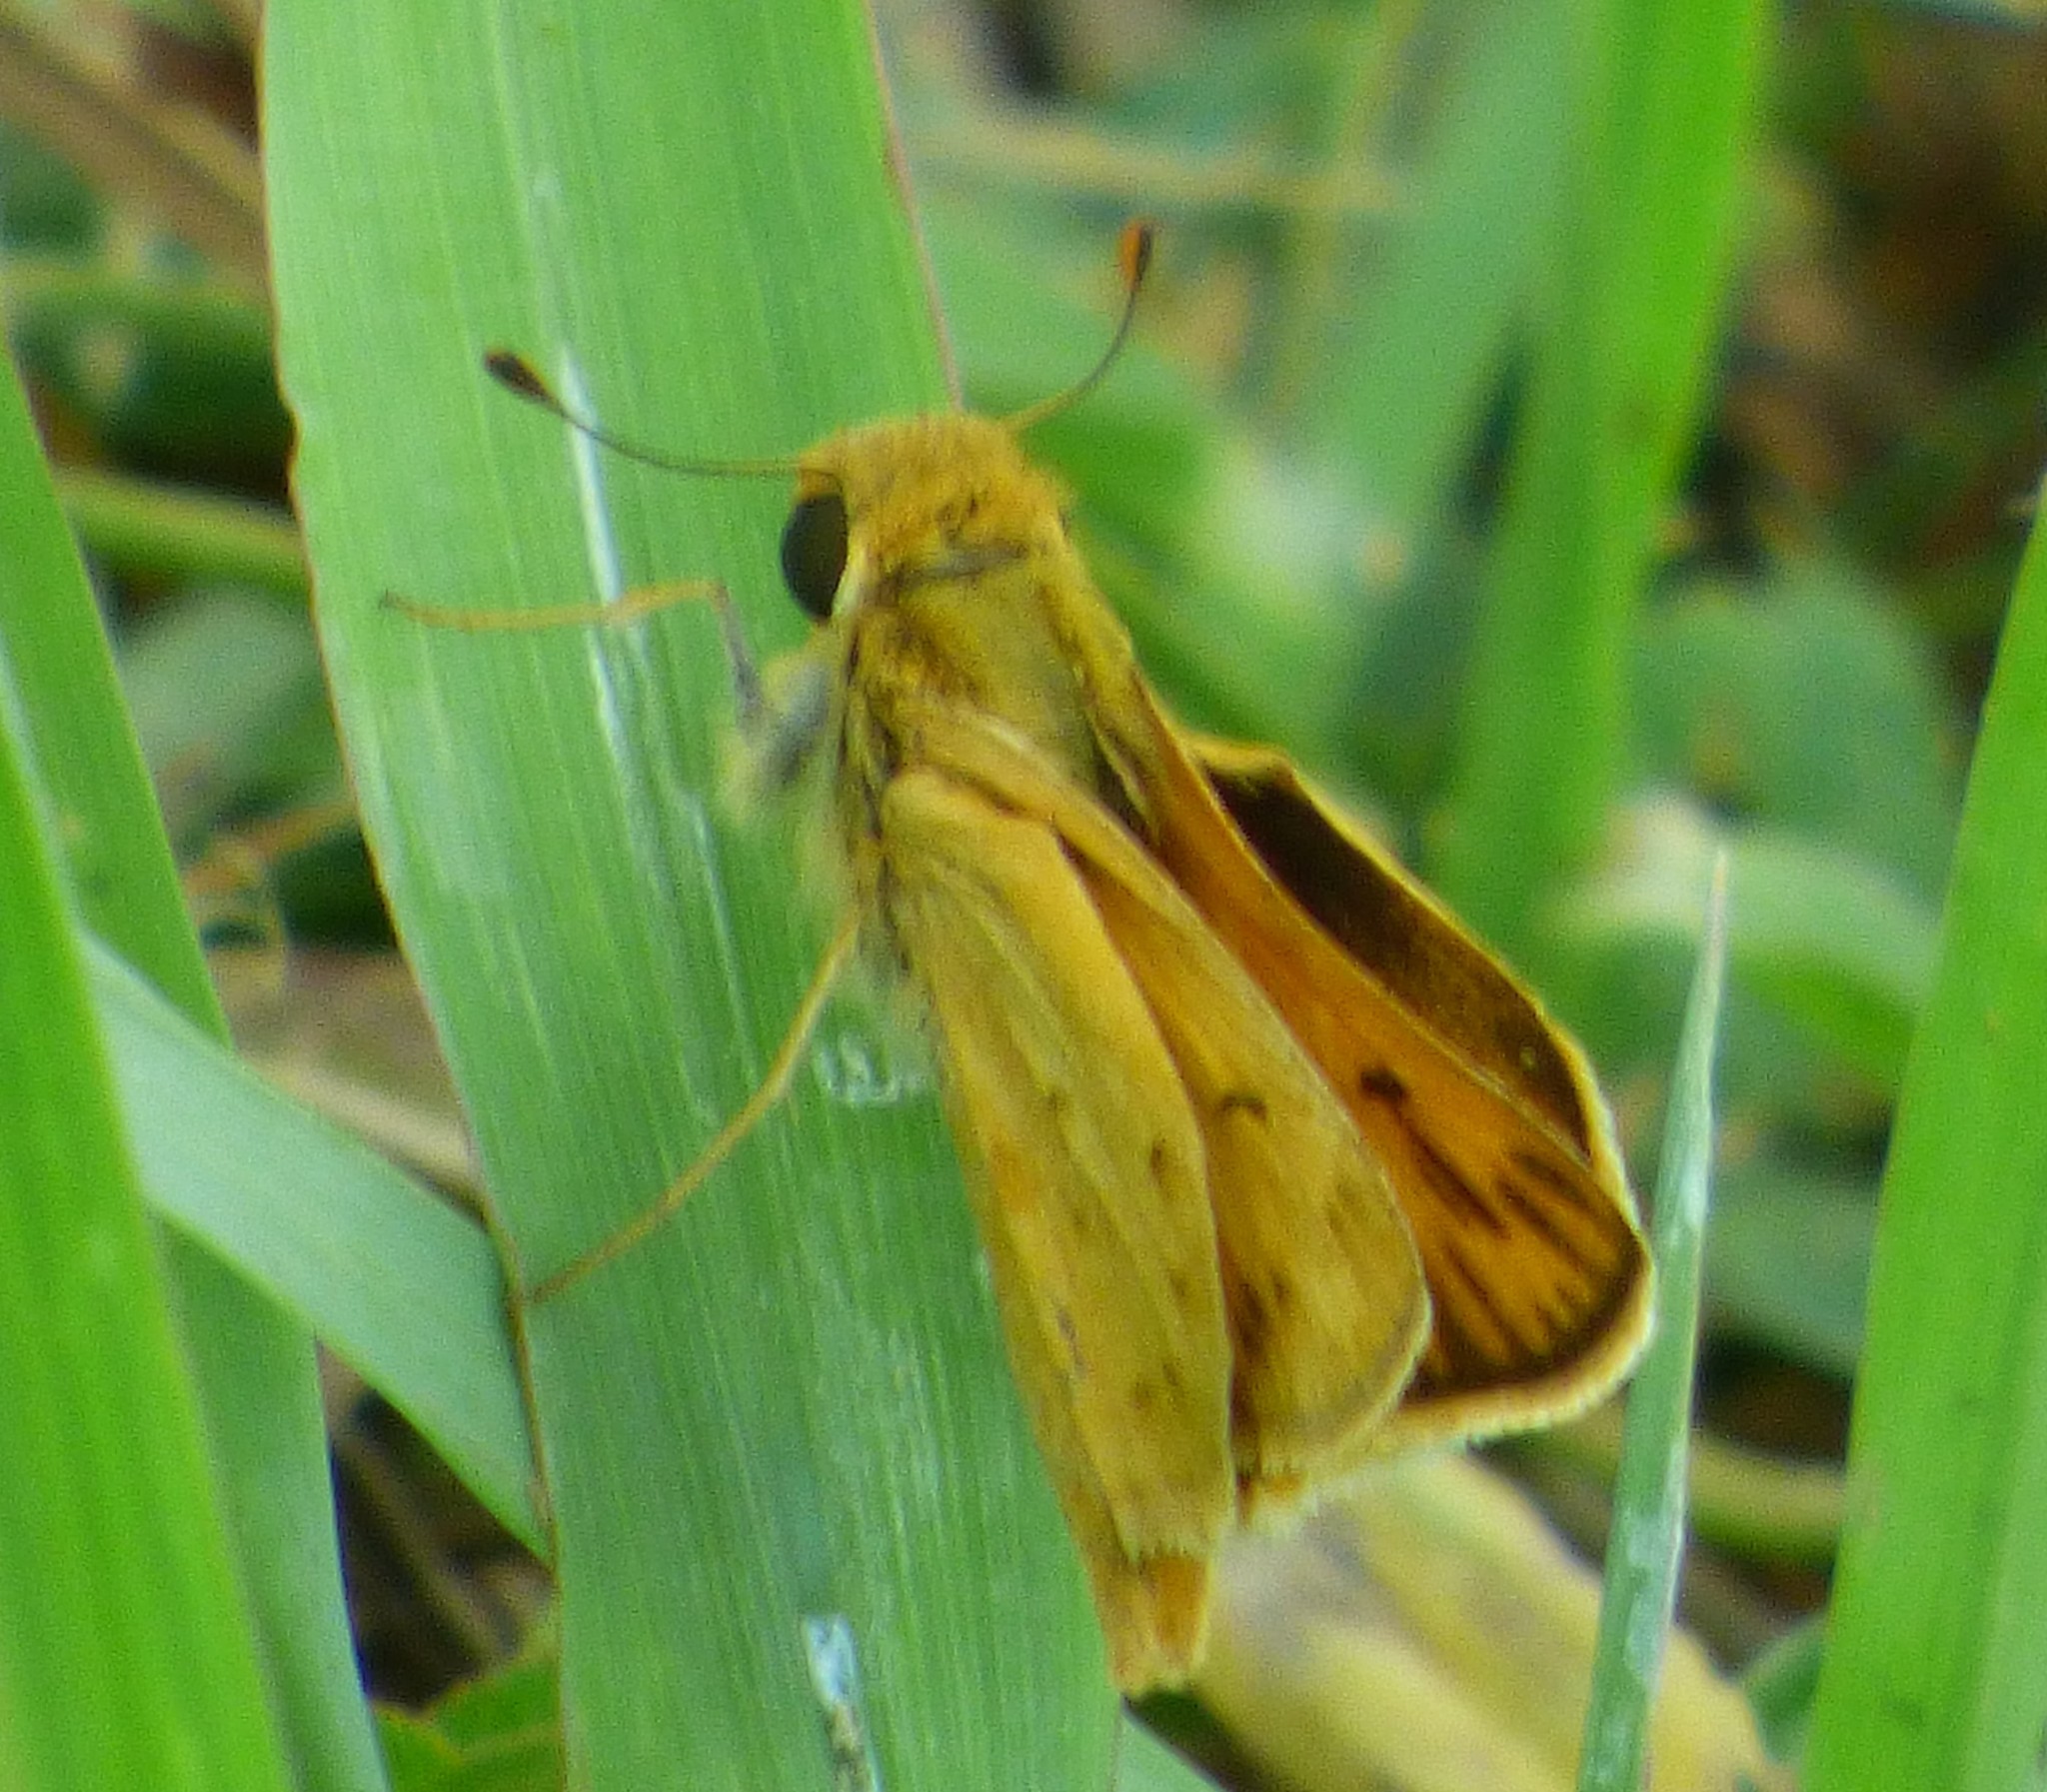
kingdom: Animalia
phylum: Arthropoda
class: Insecta
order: Lepidoptera
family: Hesperiidae
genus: Hylephila
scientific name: Hylephila phyleus
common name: Fiery skipper
